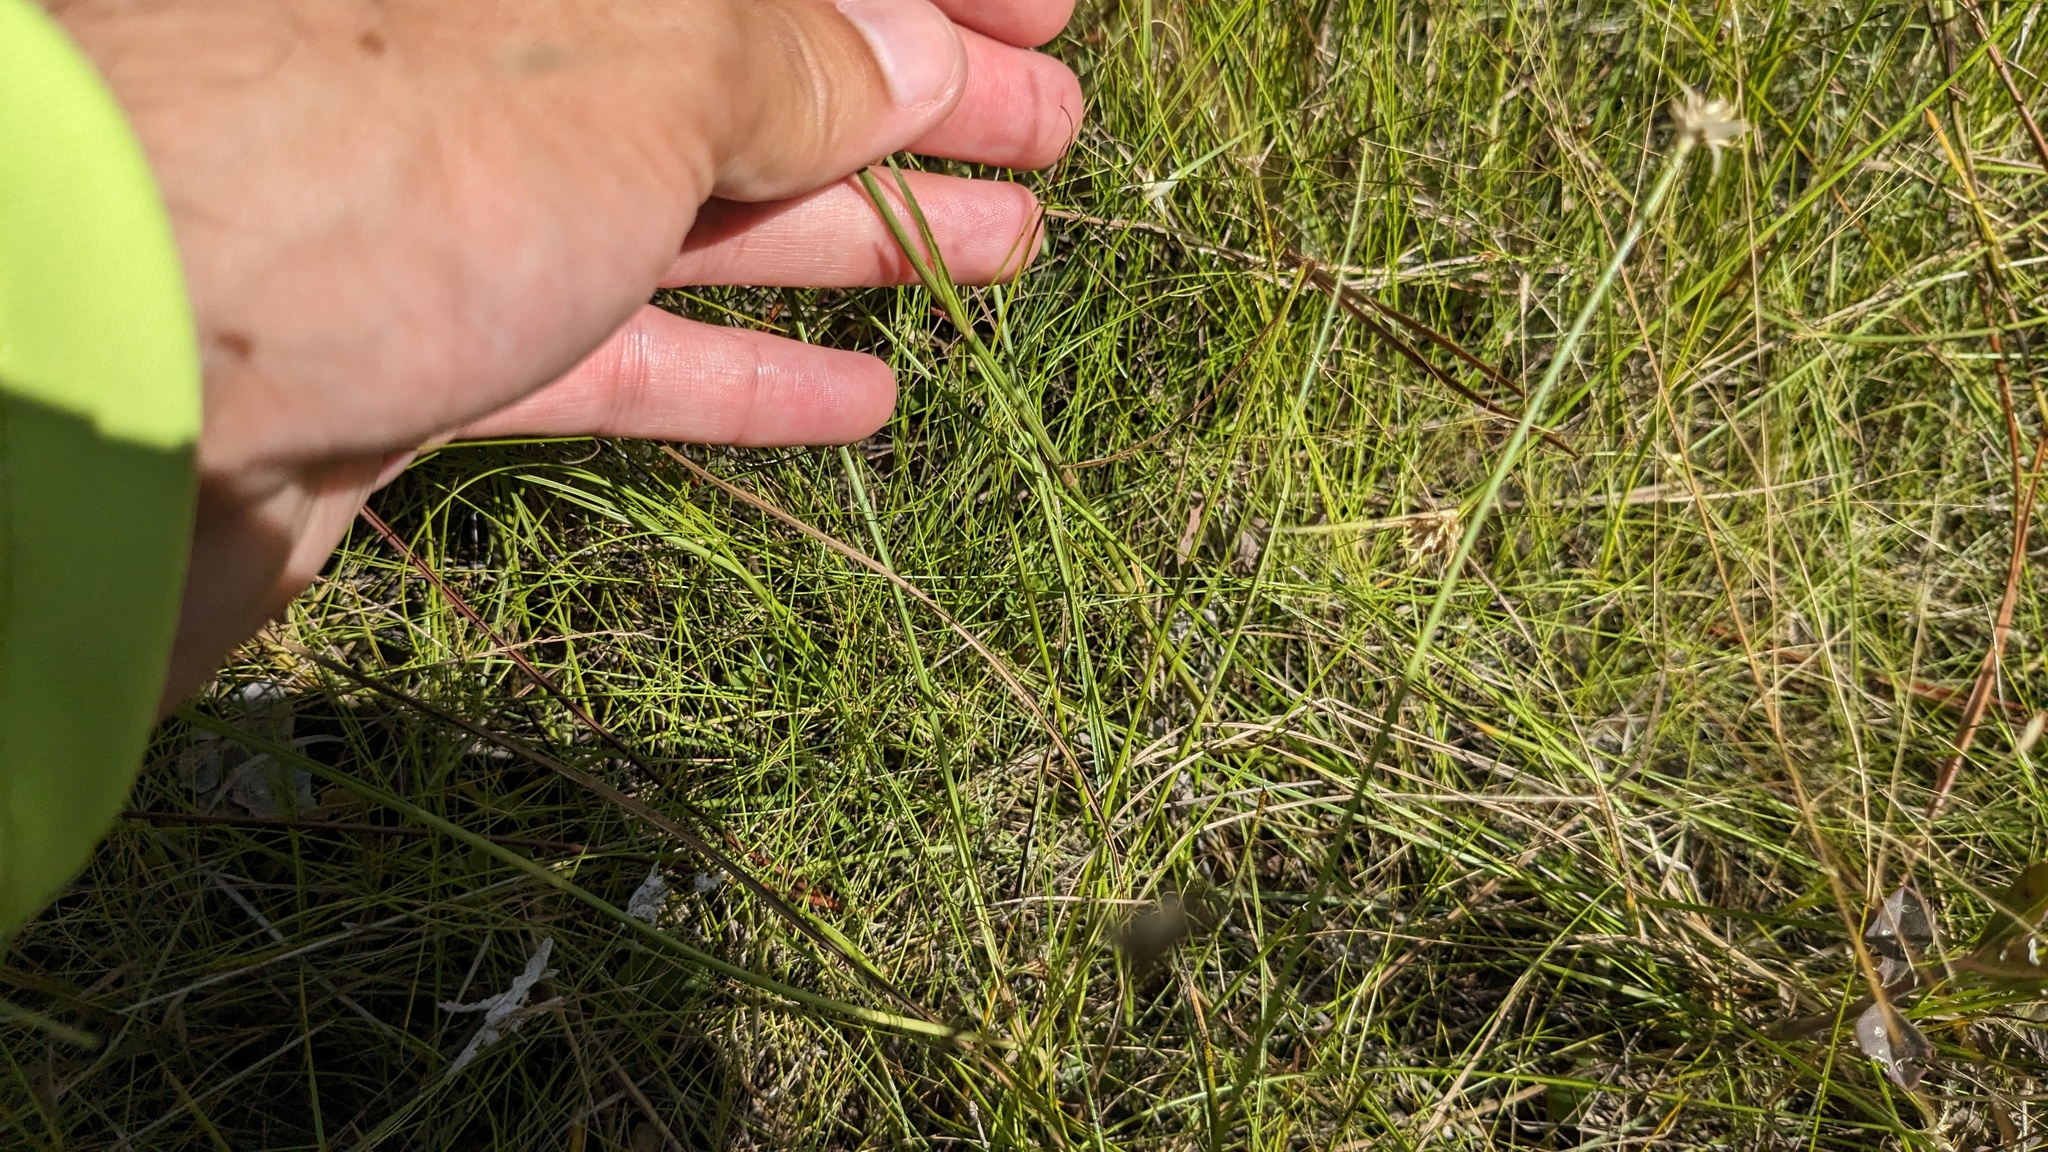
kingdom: Plantae
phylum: Tracheophyta
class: Magnoliopsida
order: Lamiales
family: Acanthaceae
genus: Dianthera
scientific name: Dianthera angusta
